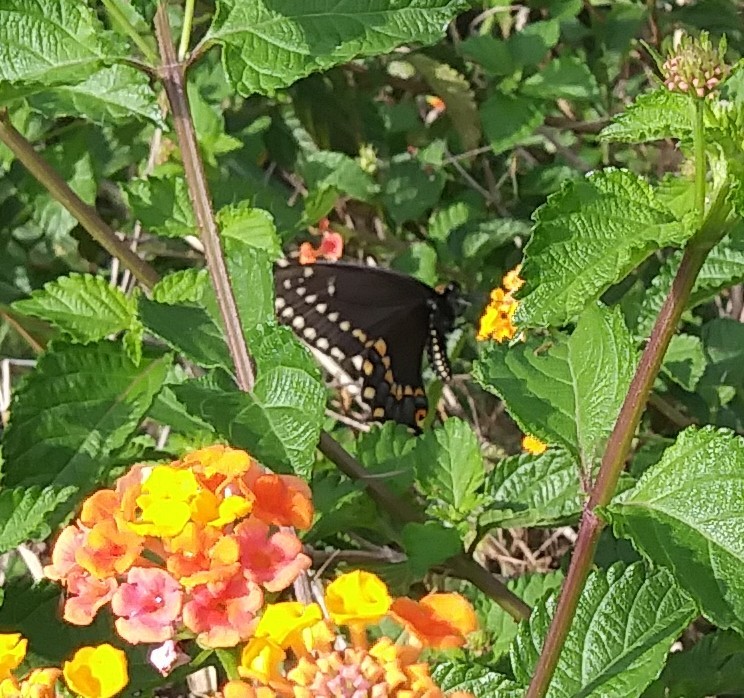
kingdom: Animalia
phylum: Arthropoda
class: Insecta
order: Lepidoptera
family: Papilionidae
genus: Papilio
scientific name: Papilio polyxenes
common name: Black swallowtail
